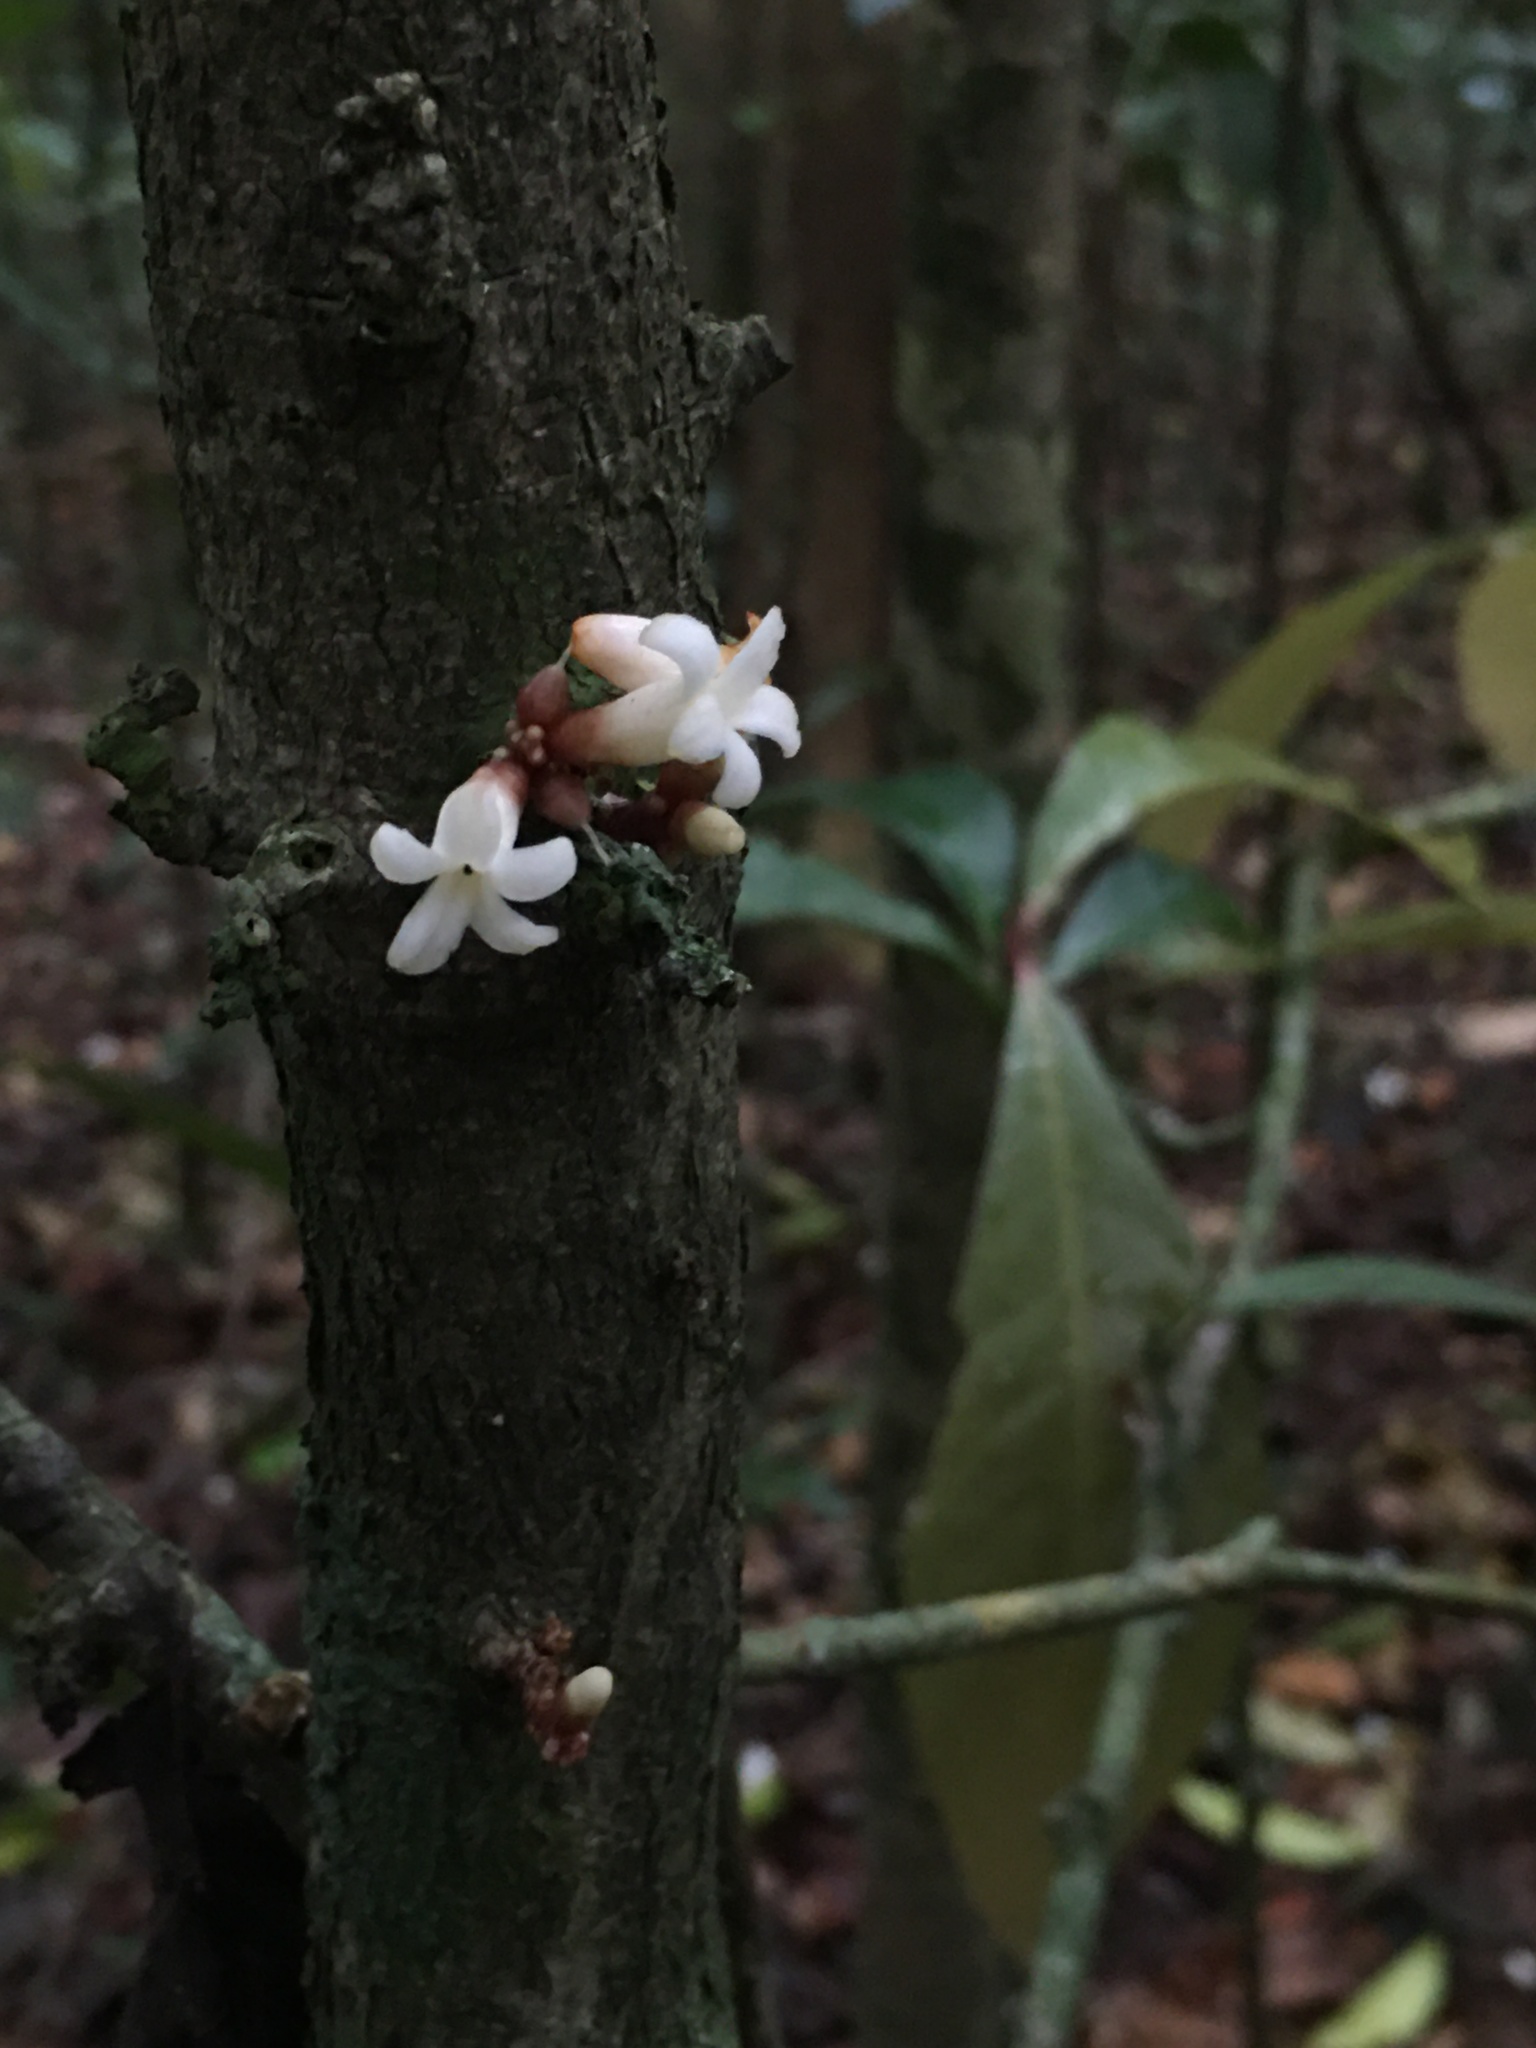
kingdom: Plantae
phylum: Tracheophyta
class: Magnoliopsida
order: Malpighiales
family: Violaceae
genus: Paypayrola
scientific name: Paypayrola blanchetiana
